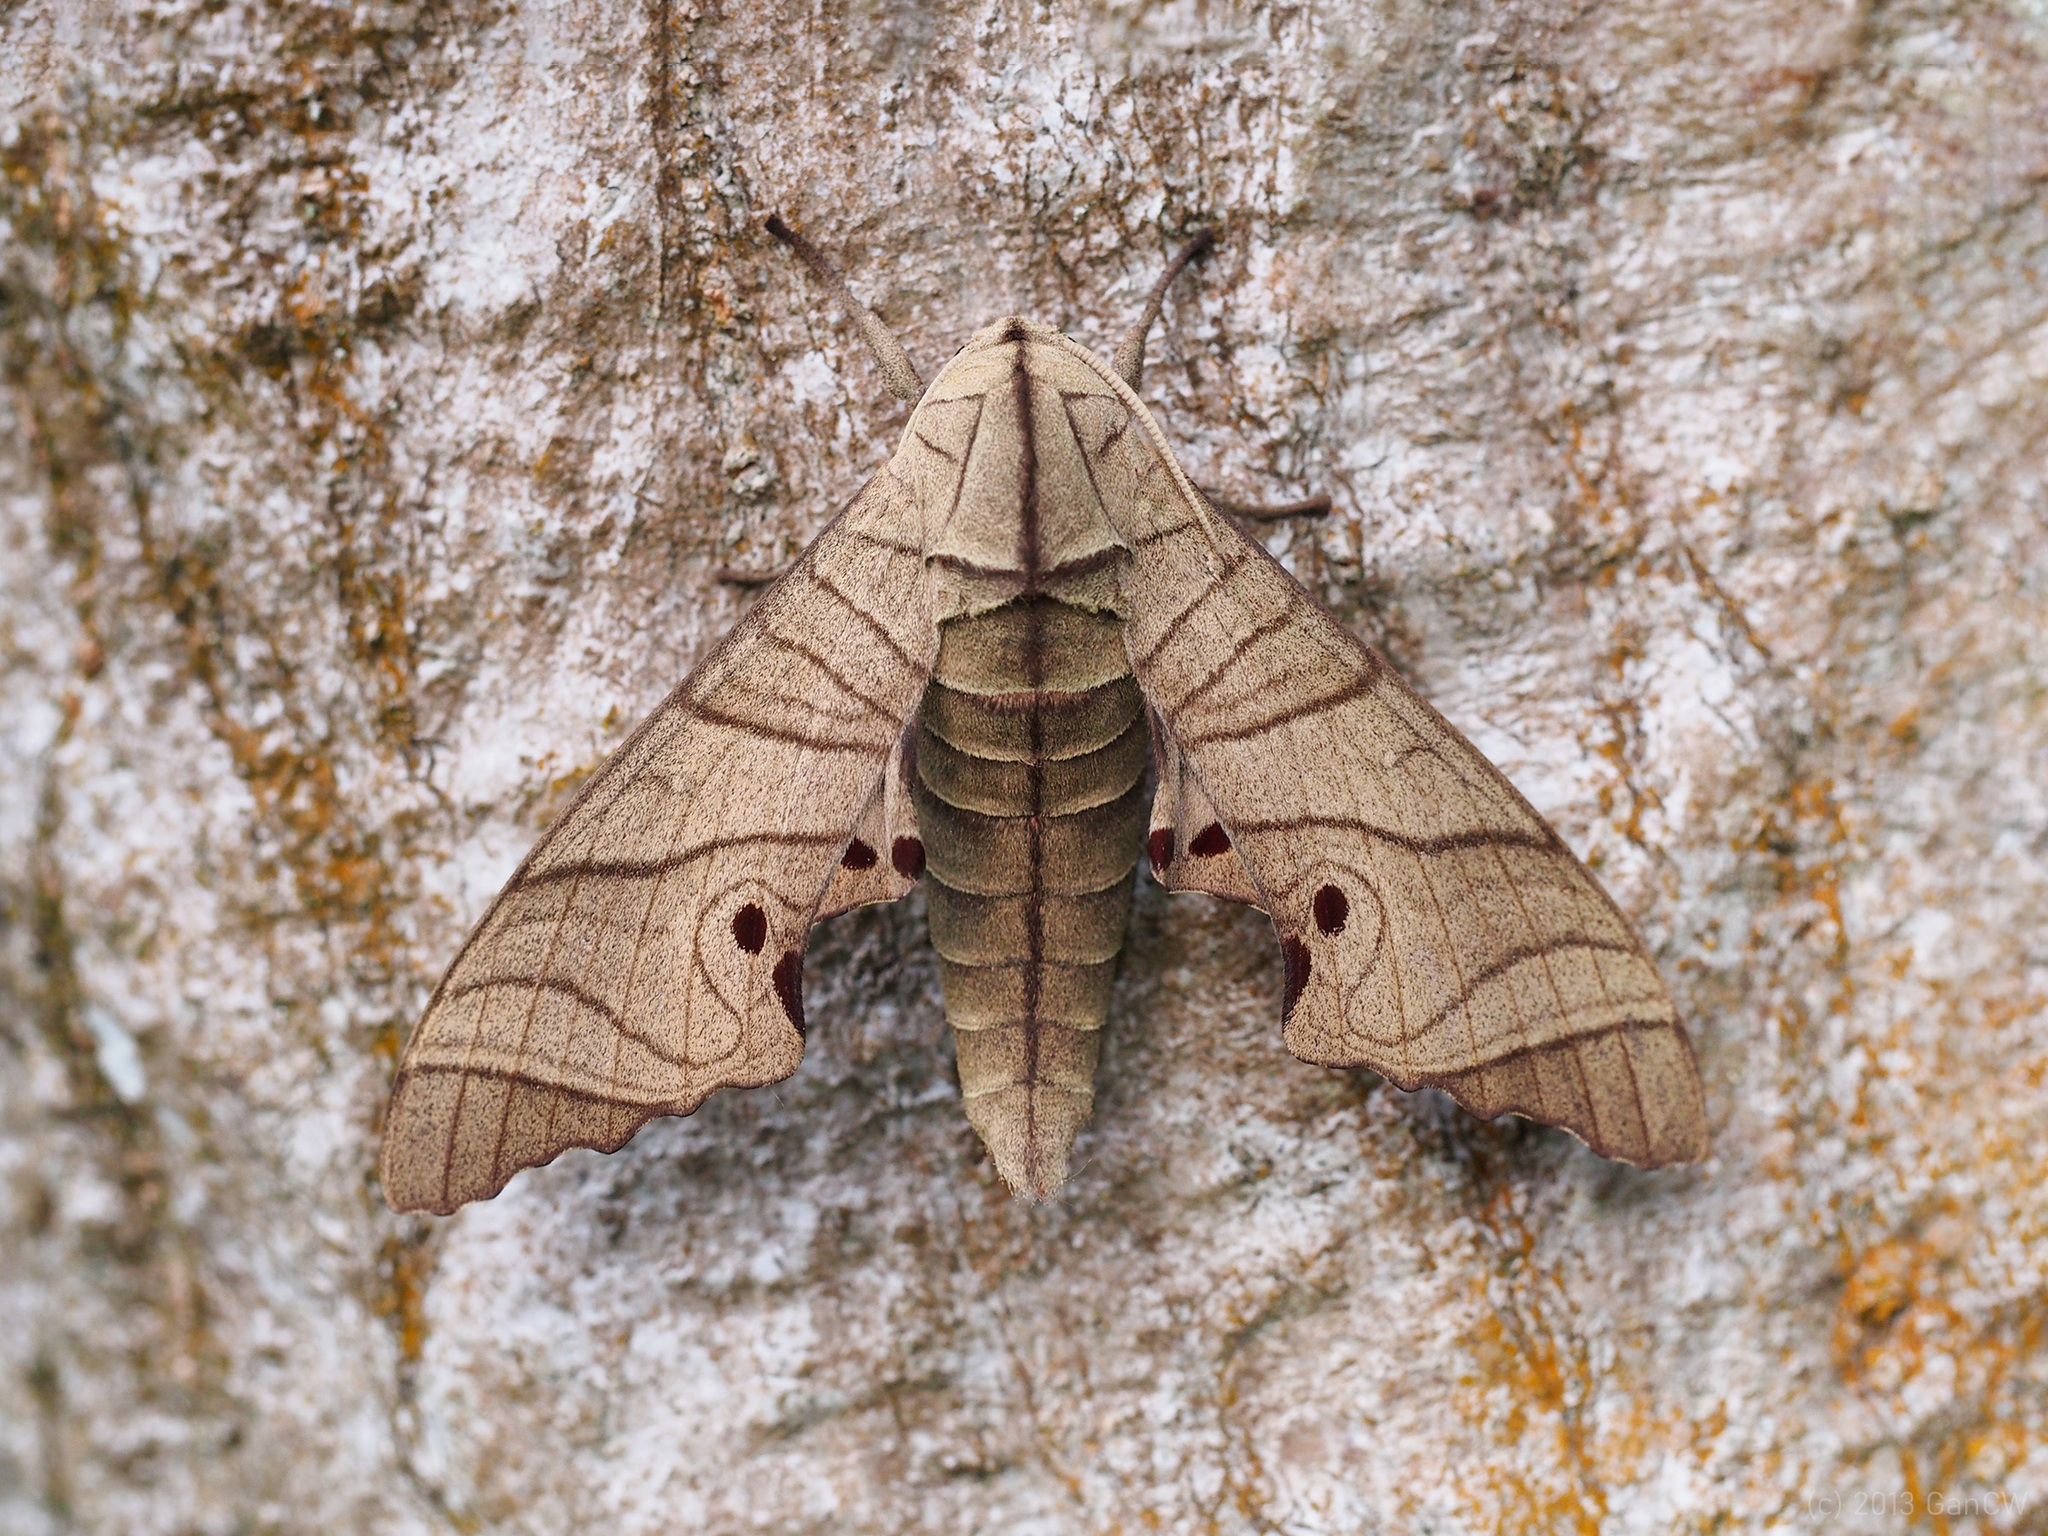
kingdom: Animalia
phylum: Arthropoda
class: Insecta
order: Lepidoptera
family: Sphingidae
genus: Marumba
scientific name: Marumba juvencus
